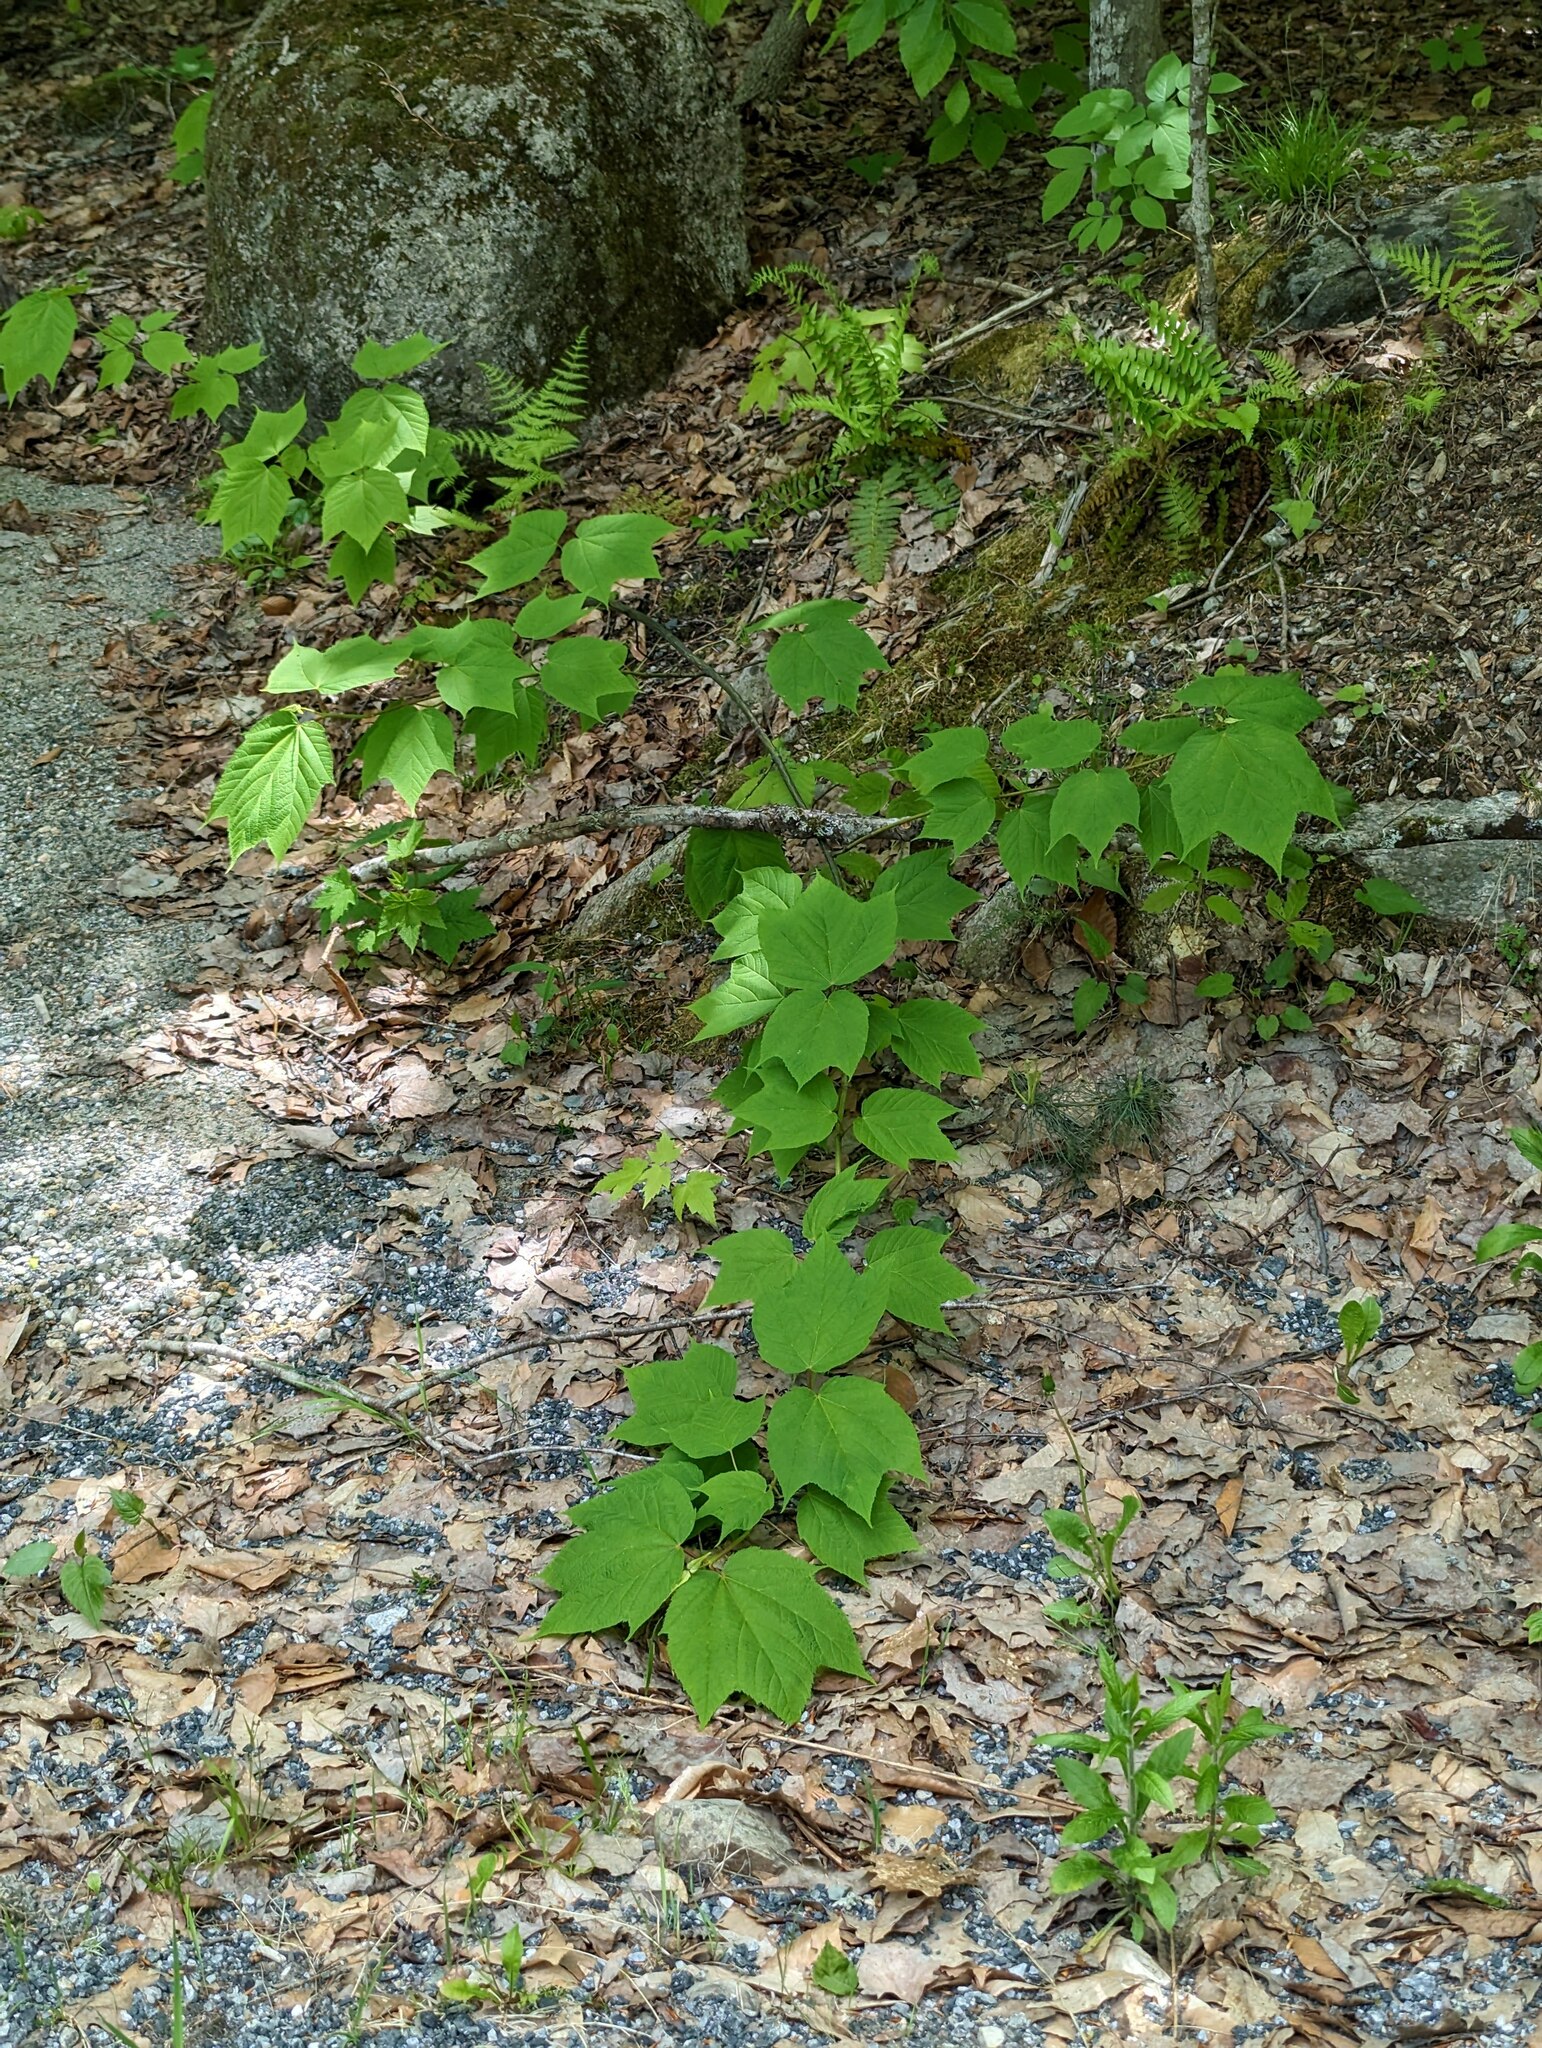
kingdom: Plantae
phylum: Tracheophyta
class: Magnoliopsida
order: Sapindales
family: Sapindaceae
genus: Acer
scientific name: Acer pensylvanicum
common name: Moosewood
